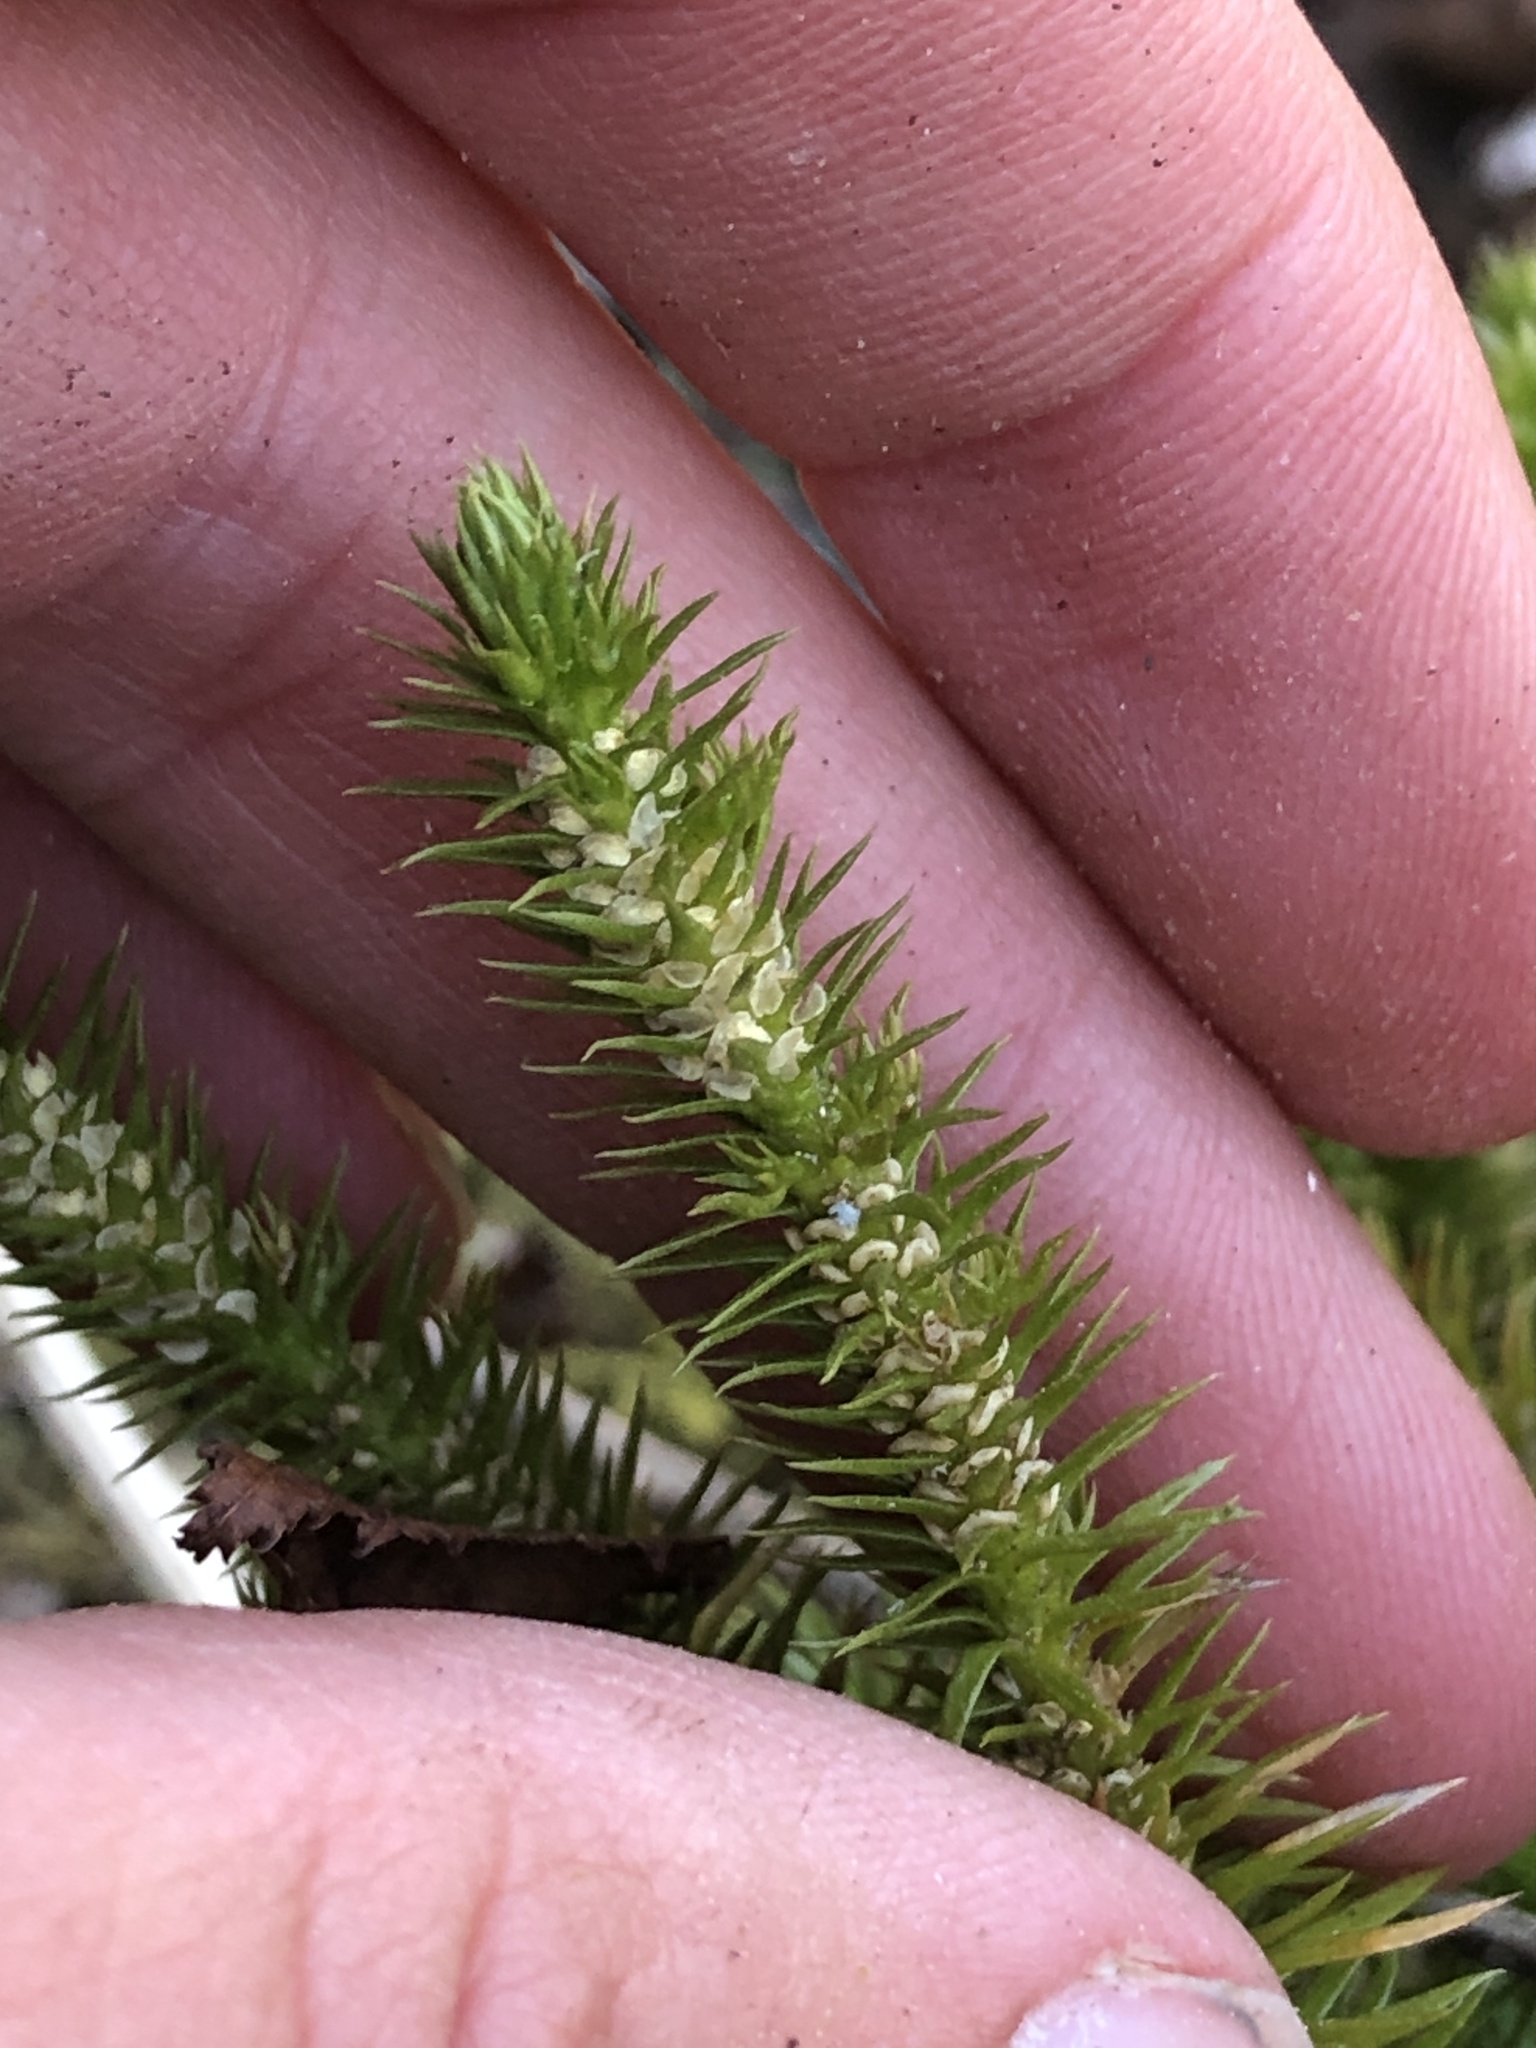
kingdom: Plantae
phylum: Tracheophyta
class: Lycopodiopsida
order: Lycopodiales
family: Lycopodiaceae
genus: Huperzia
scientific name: Huperzia lucidula
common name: Shining clubmoss
